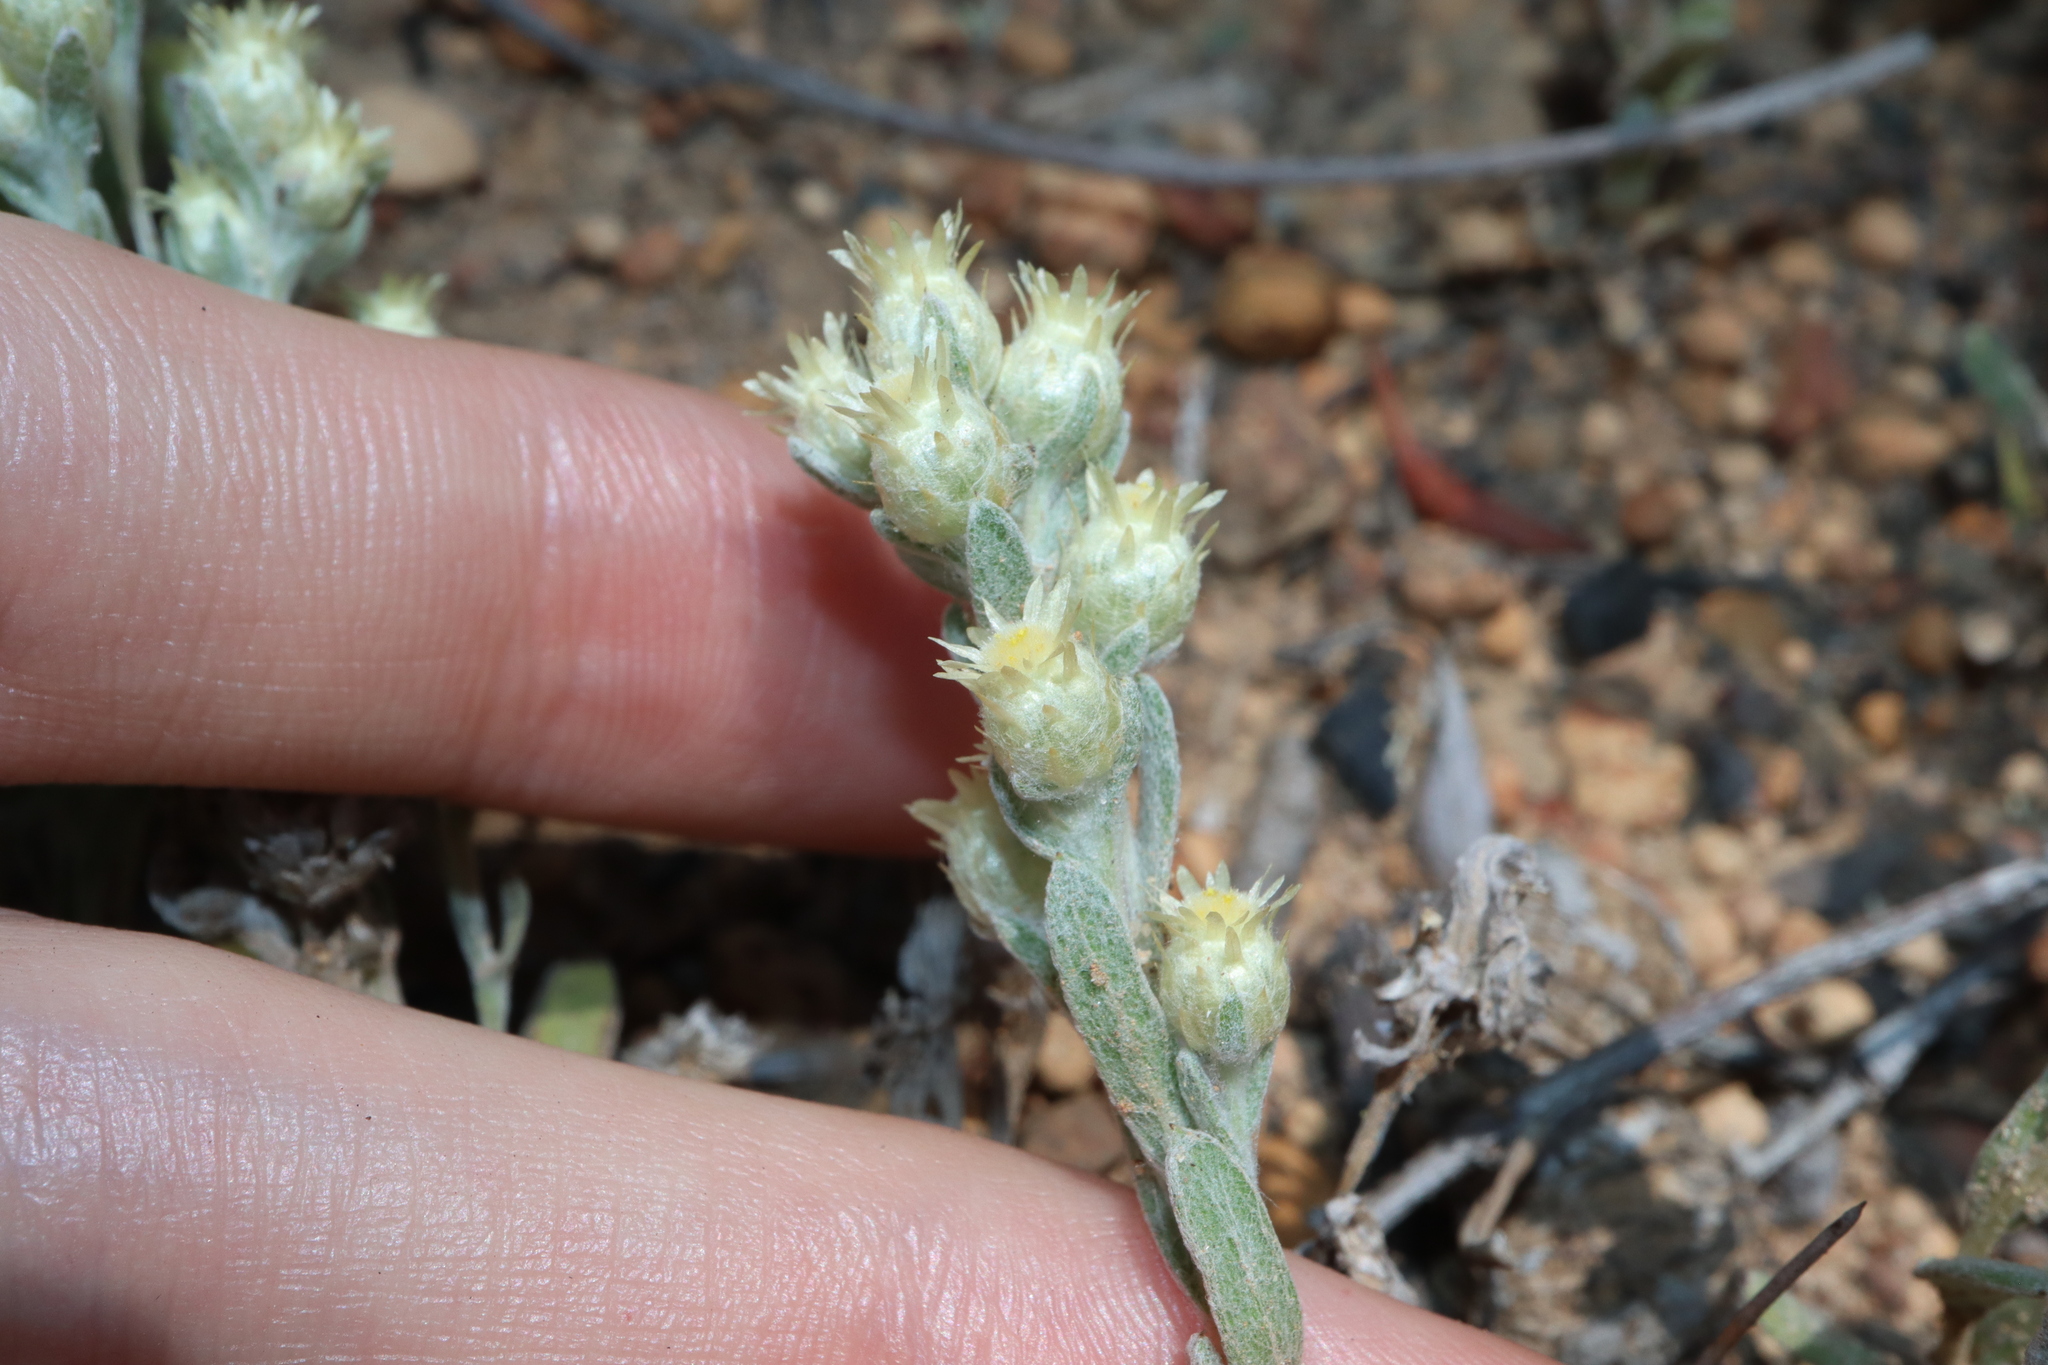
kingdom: Plantae
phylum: Tracheophyta
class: Magnoliopsida
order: Asterales
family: Asteraceae
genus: Pterochaeta
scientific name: Pterochaeta paniculata
